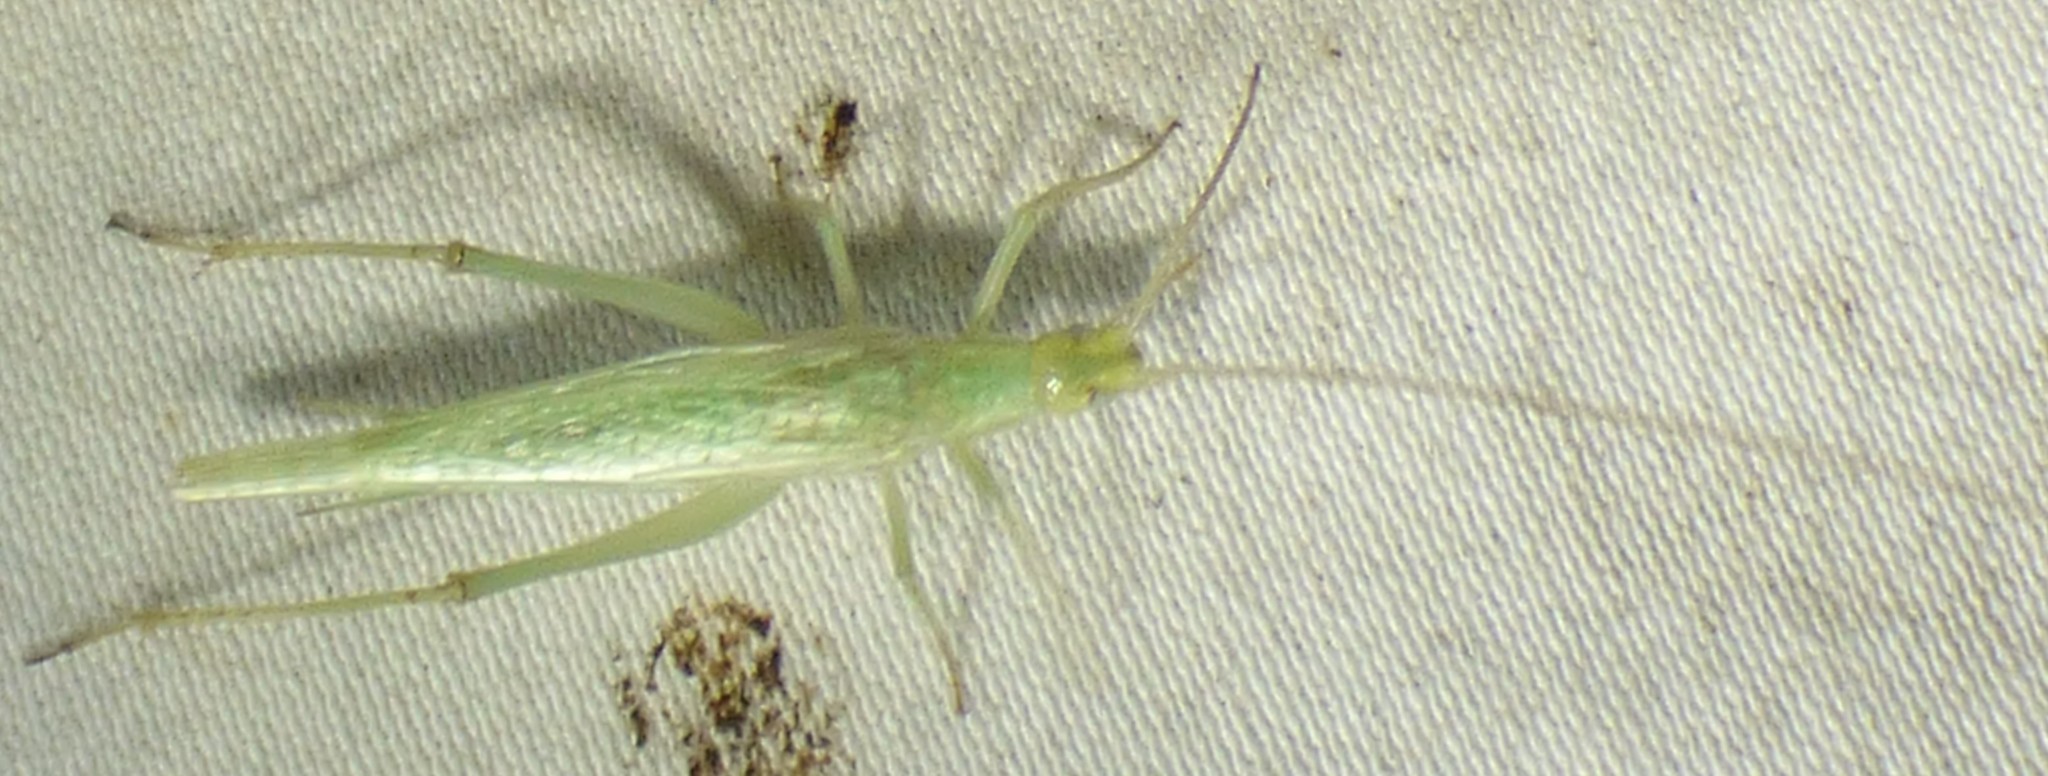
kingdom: Animalia
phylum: Arthropoda
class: Insecta
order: Orthoptera
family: Gryllidae
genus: Oecanthus
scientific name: Oecanthus celerinictus
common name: Fast-calling tree cricket
